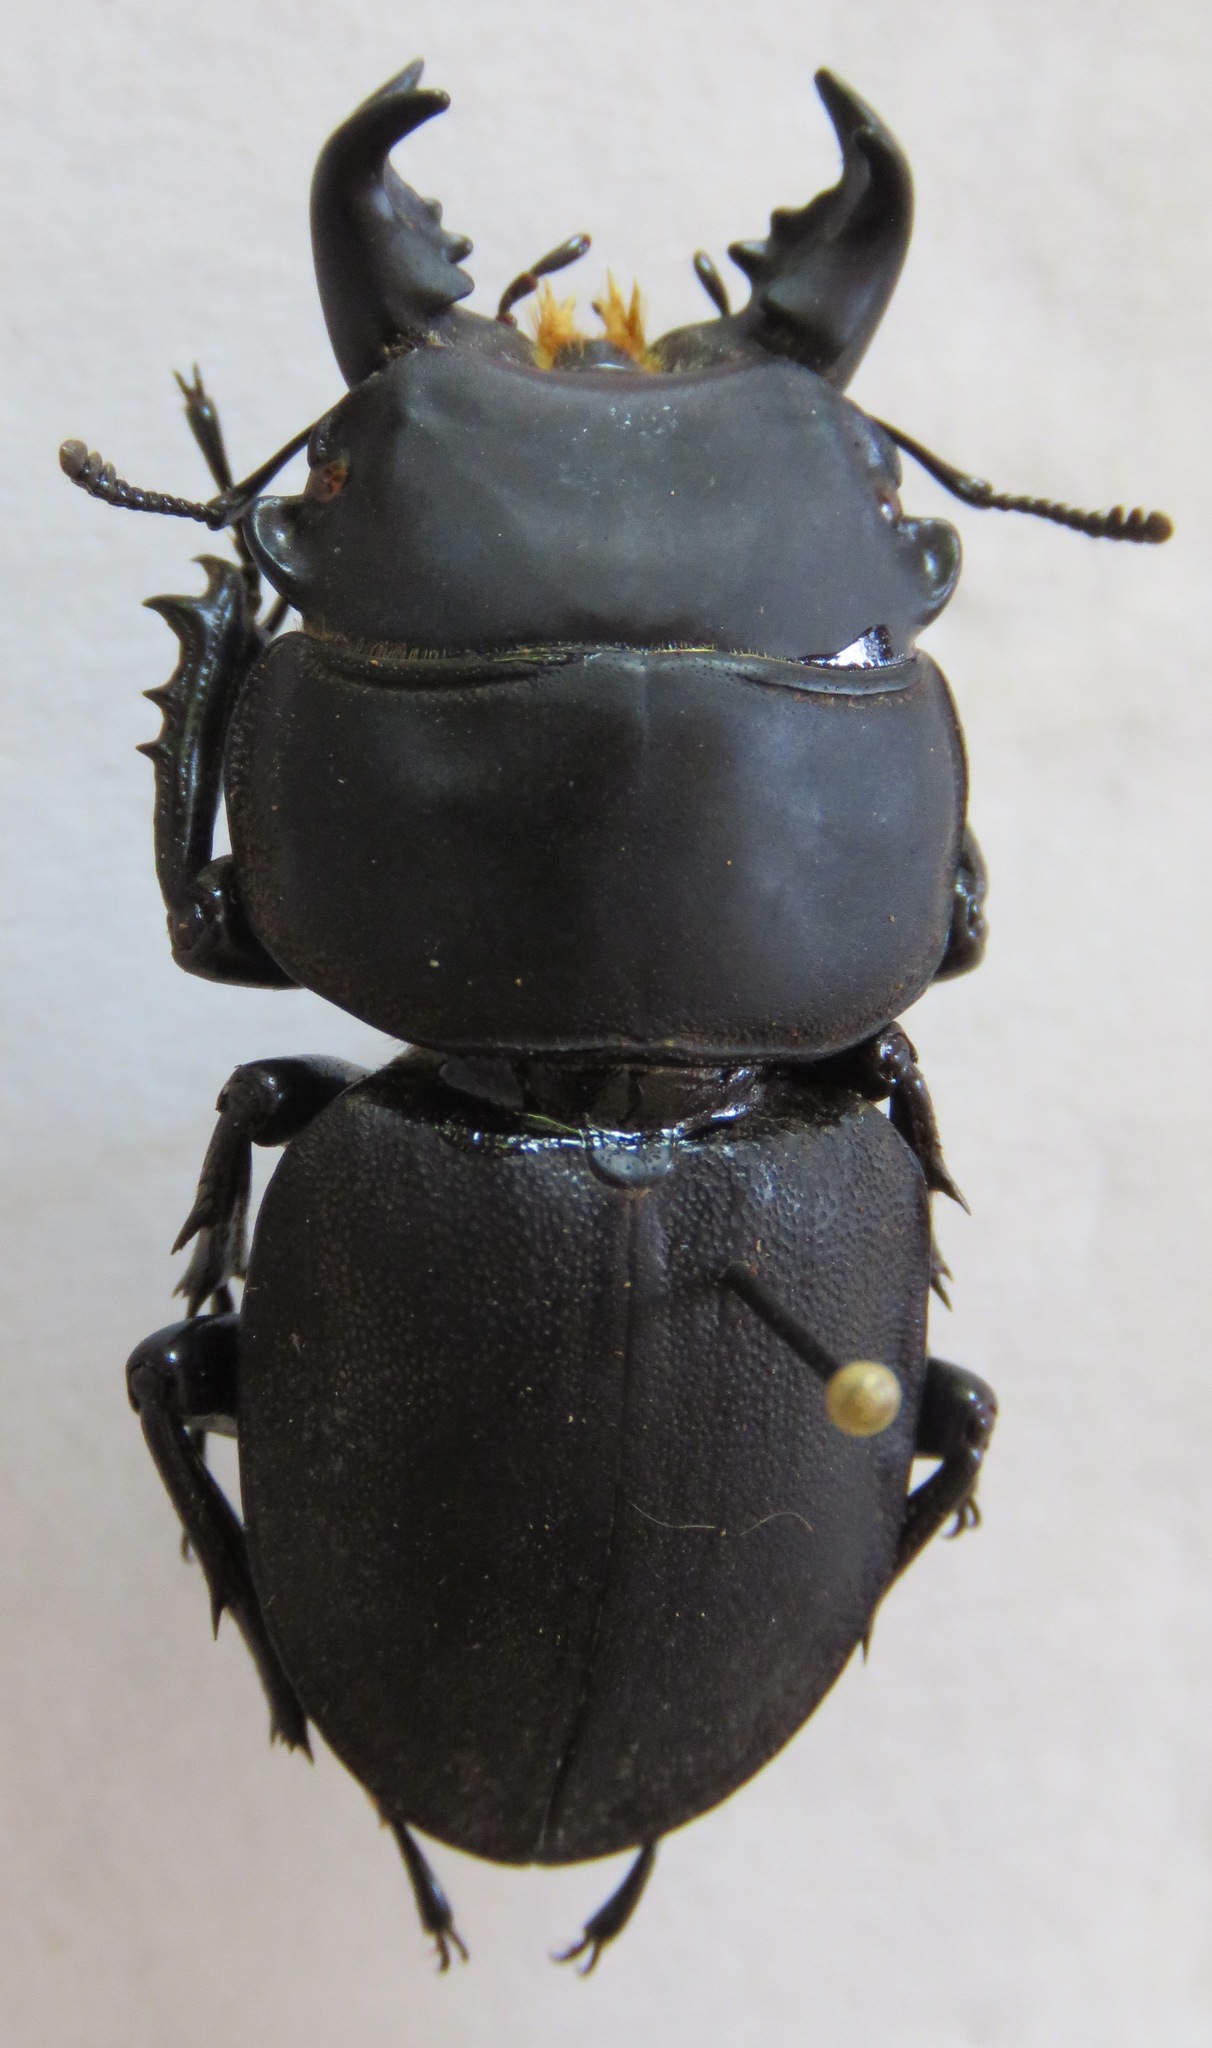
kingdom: Animalia
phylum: Arthropoda
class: Insecta
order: Coleoptera
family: Lucanidae
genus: Apterodorcus
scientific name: Apterodorcus bacchus
